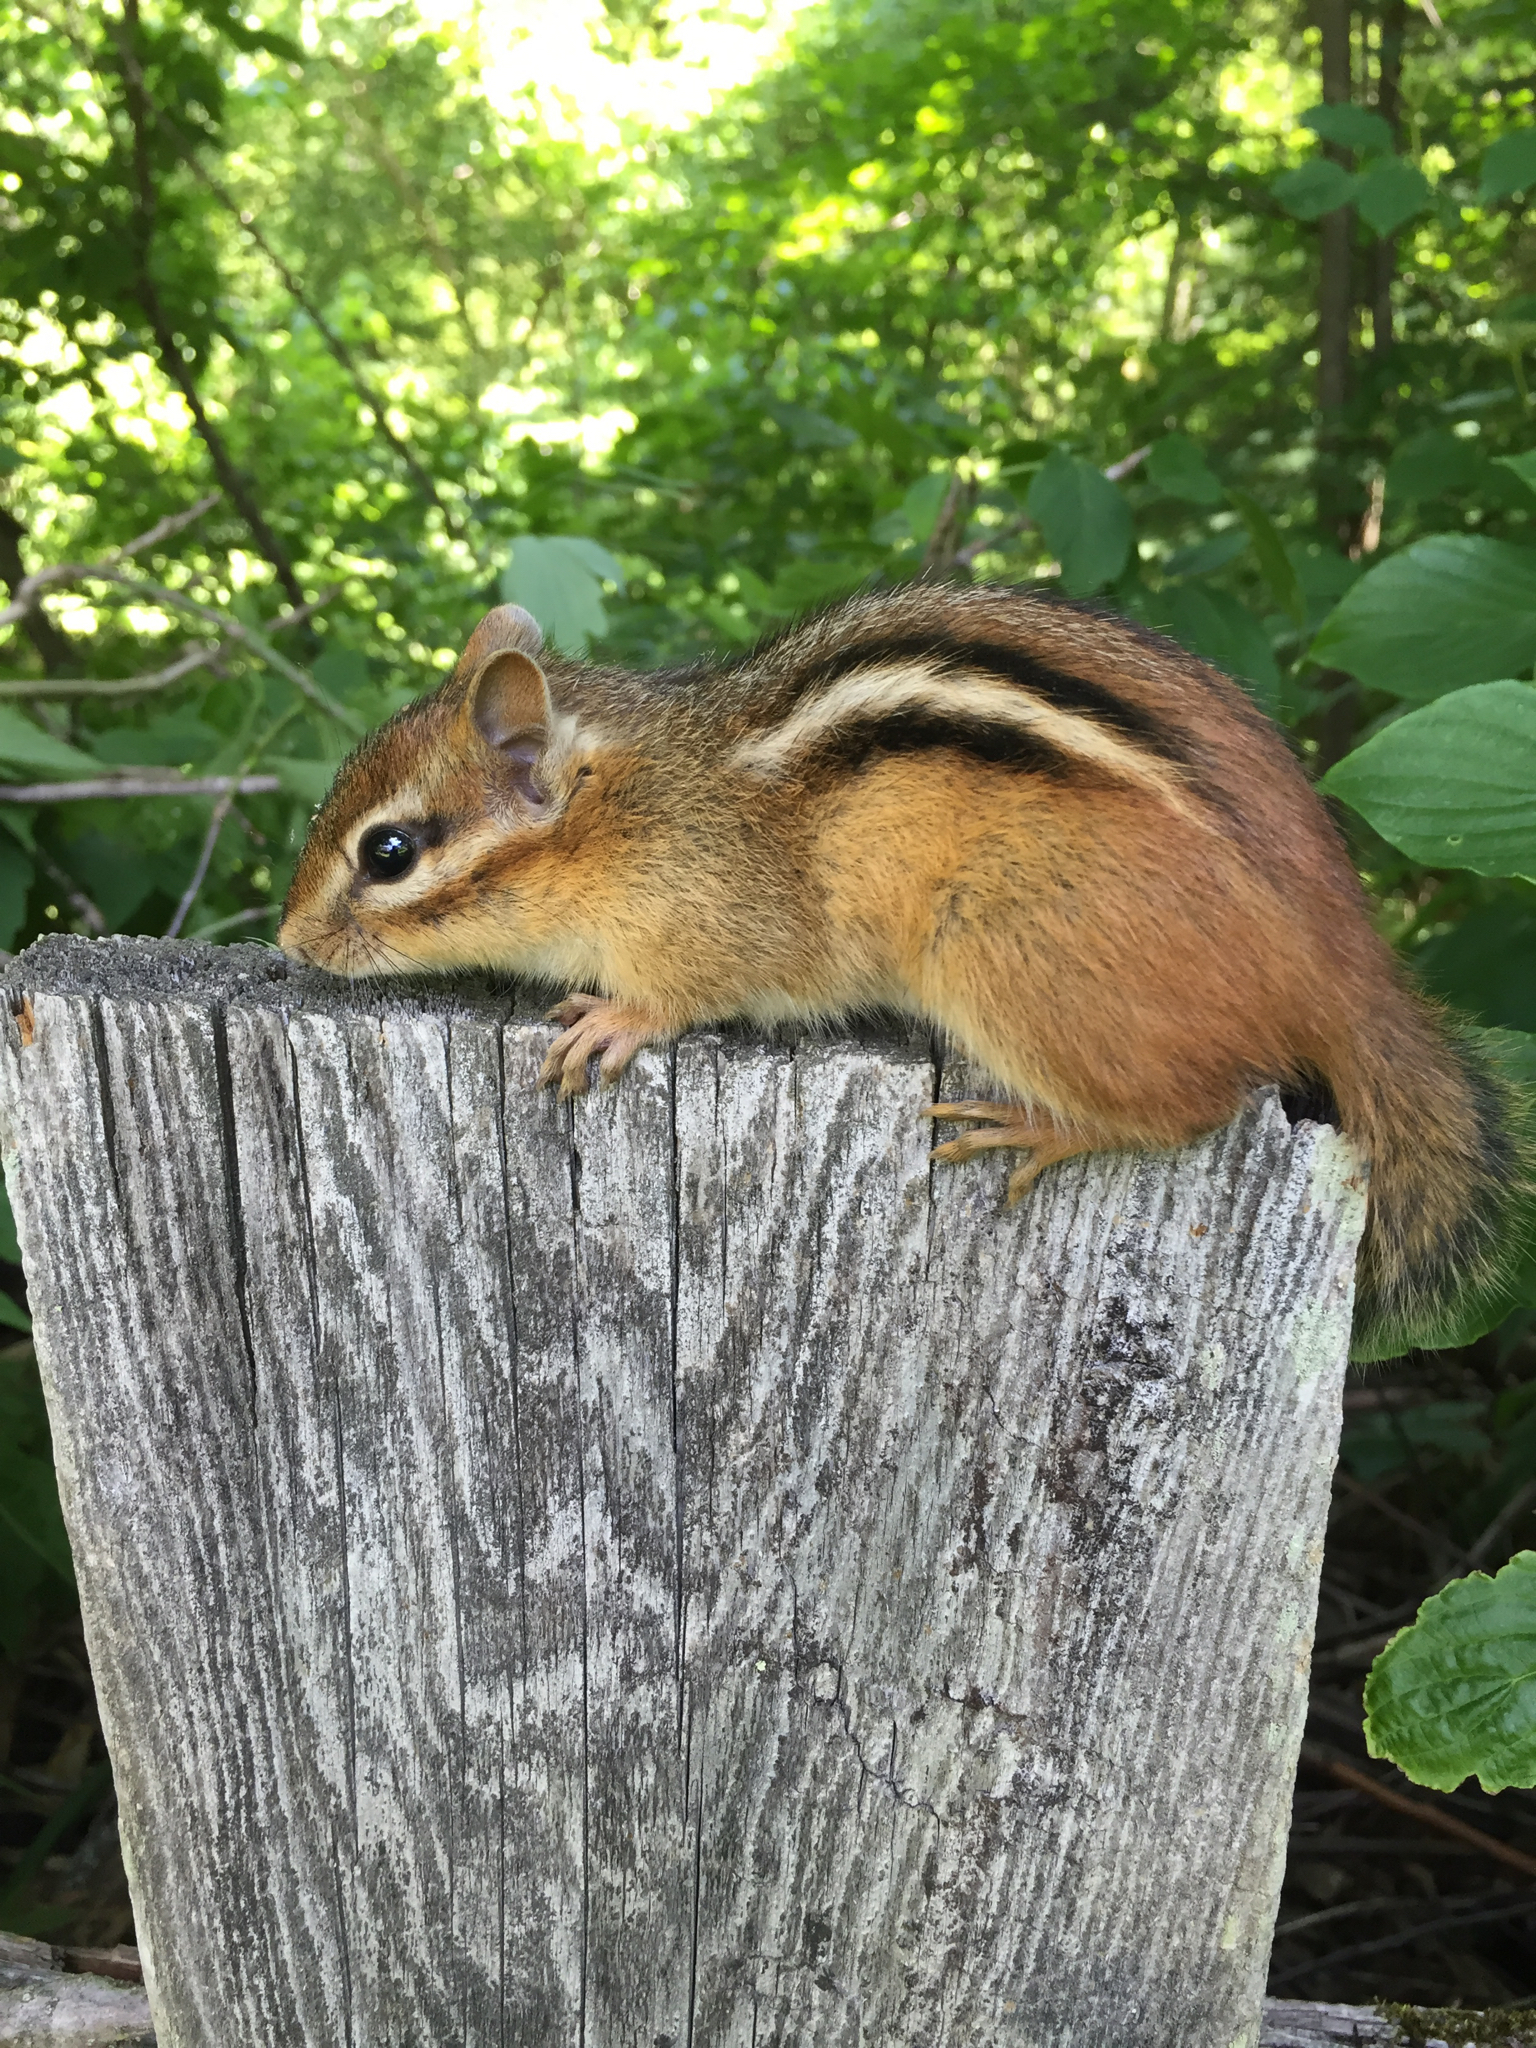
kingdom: Animalia
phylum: Chordata
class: Mammalia
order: Rodentia
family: Sciuridae
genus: Tamias
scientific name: Tamias striatus
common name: Eastern chipmunk
